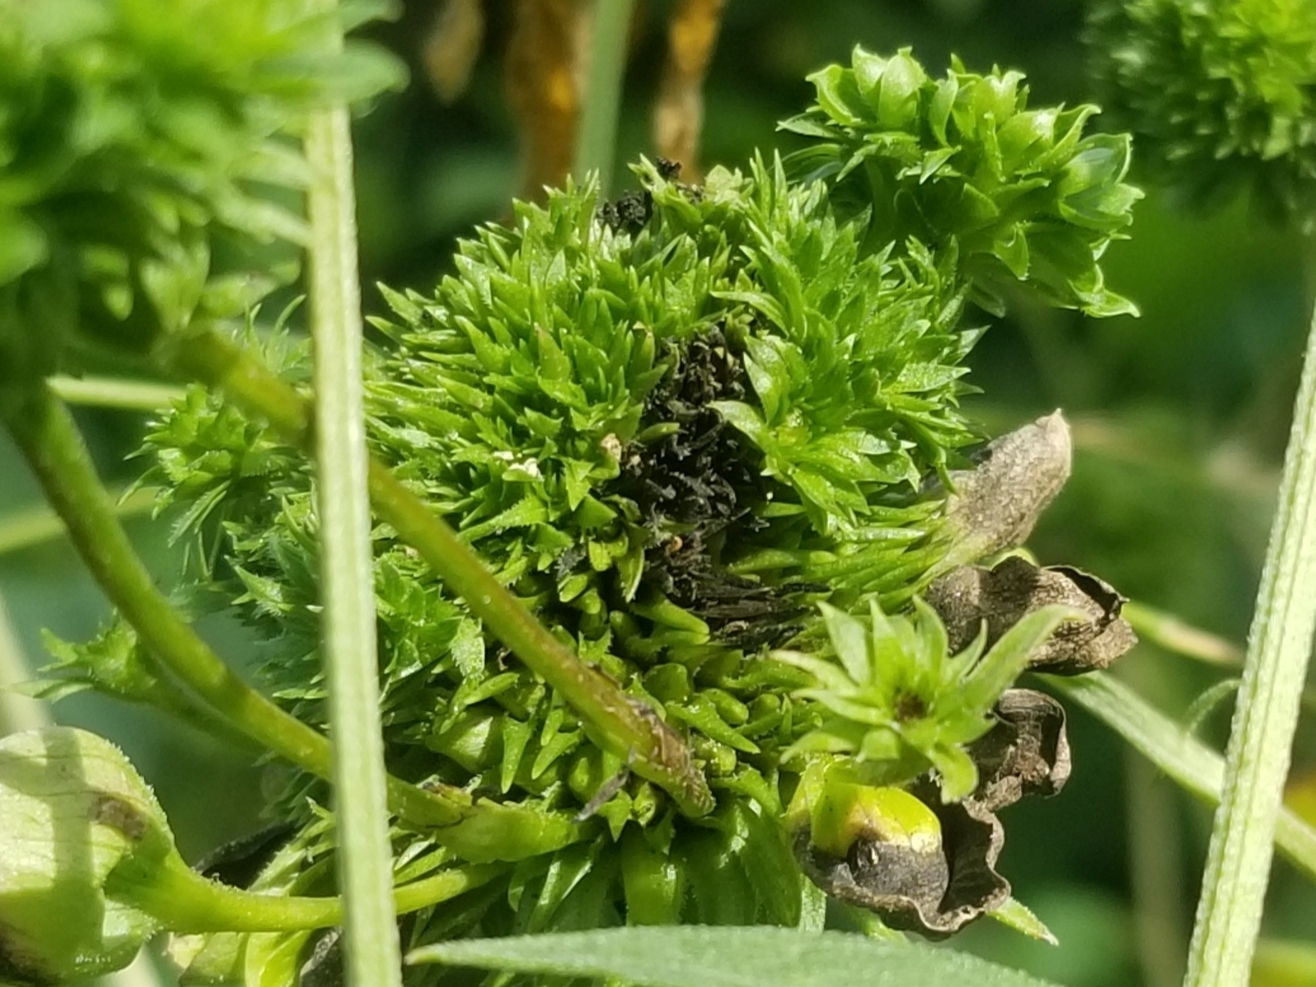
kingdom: Bacteria
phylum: Firmicutes
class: Bacilli
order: Acholeplasmatales
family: Acholeplasmataceae
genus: Phytoplasma
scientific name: Phytoplasma
